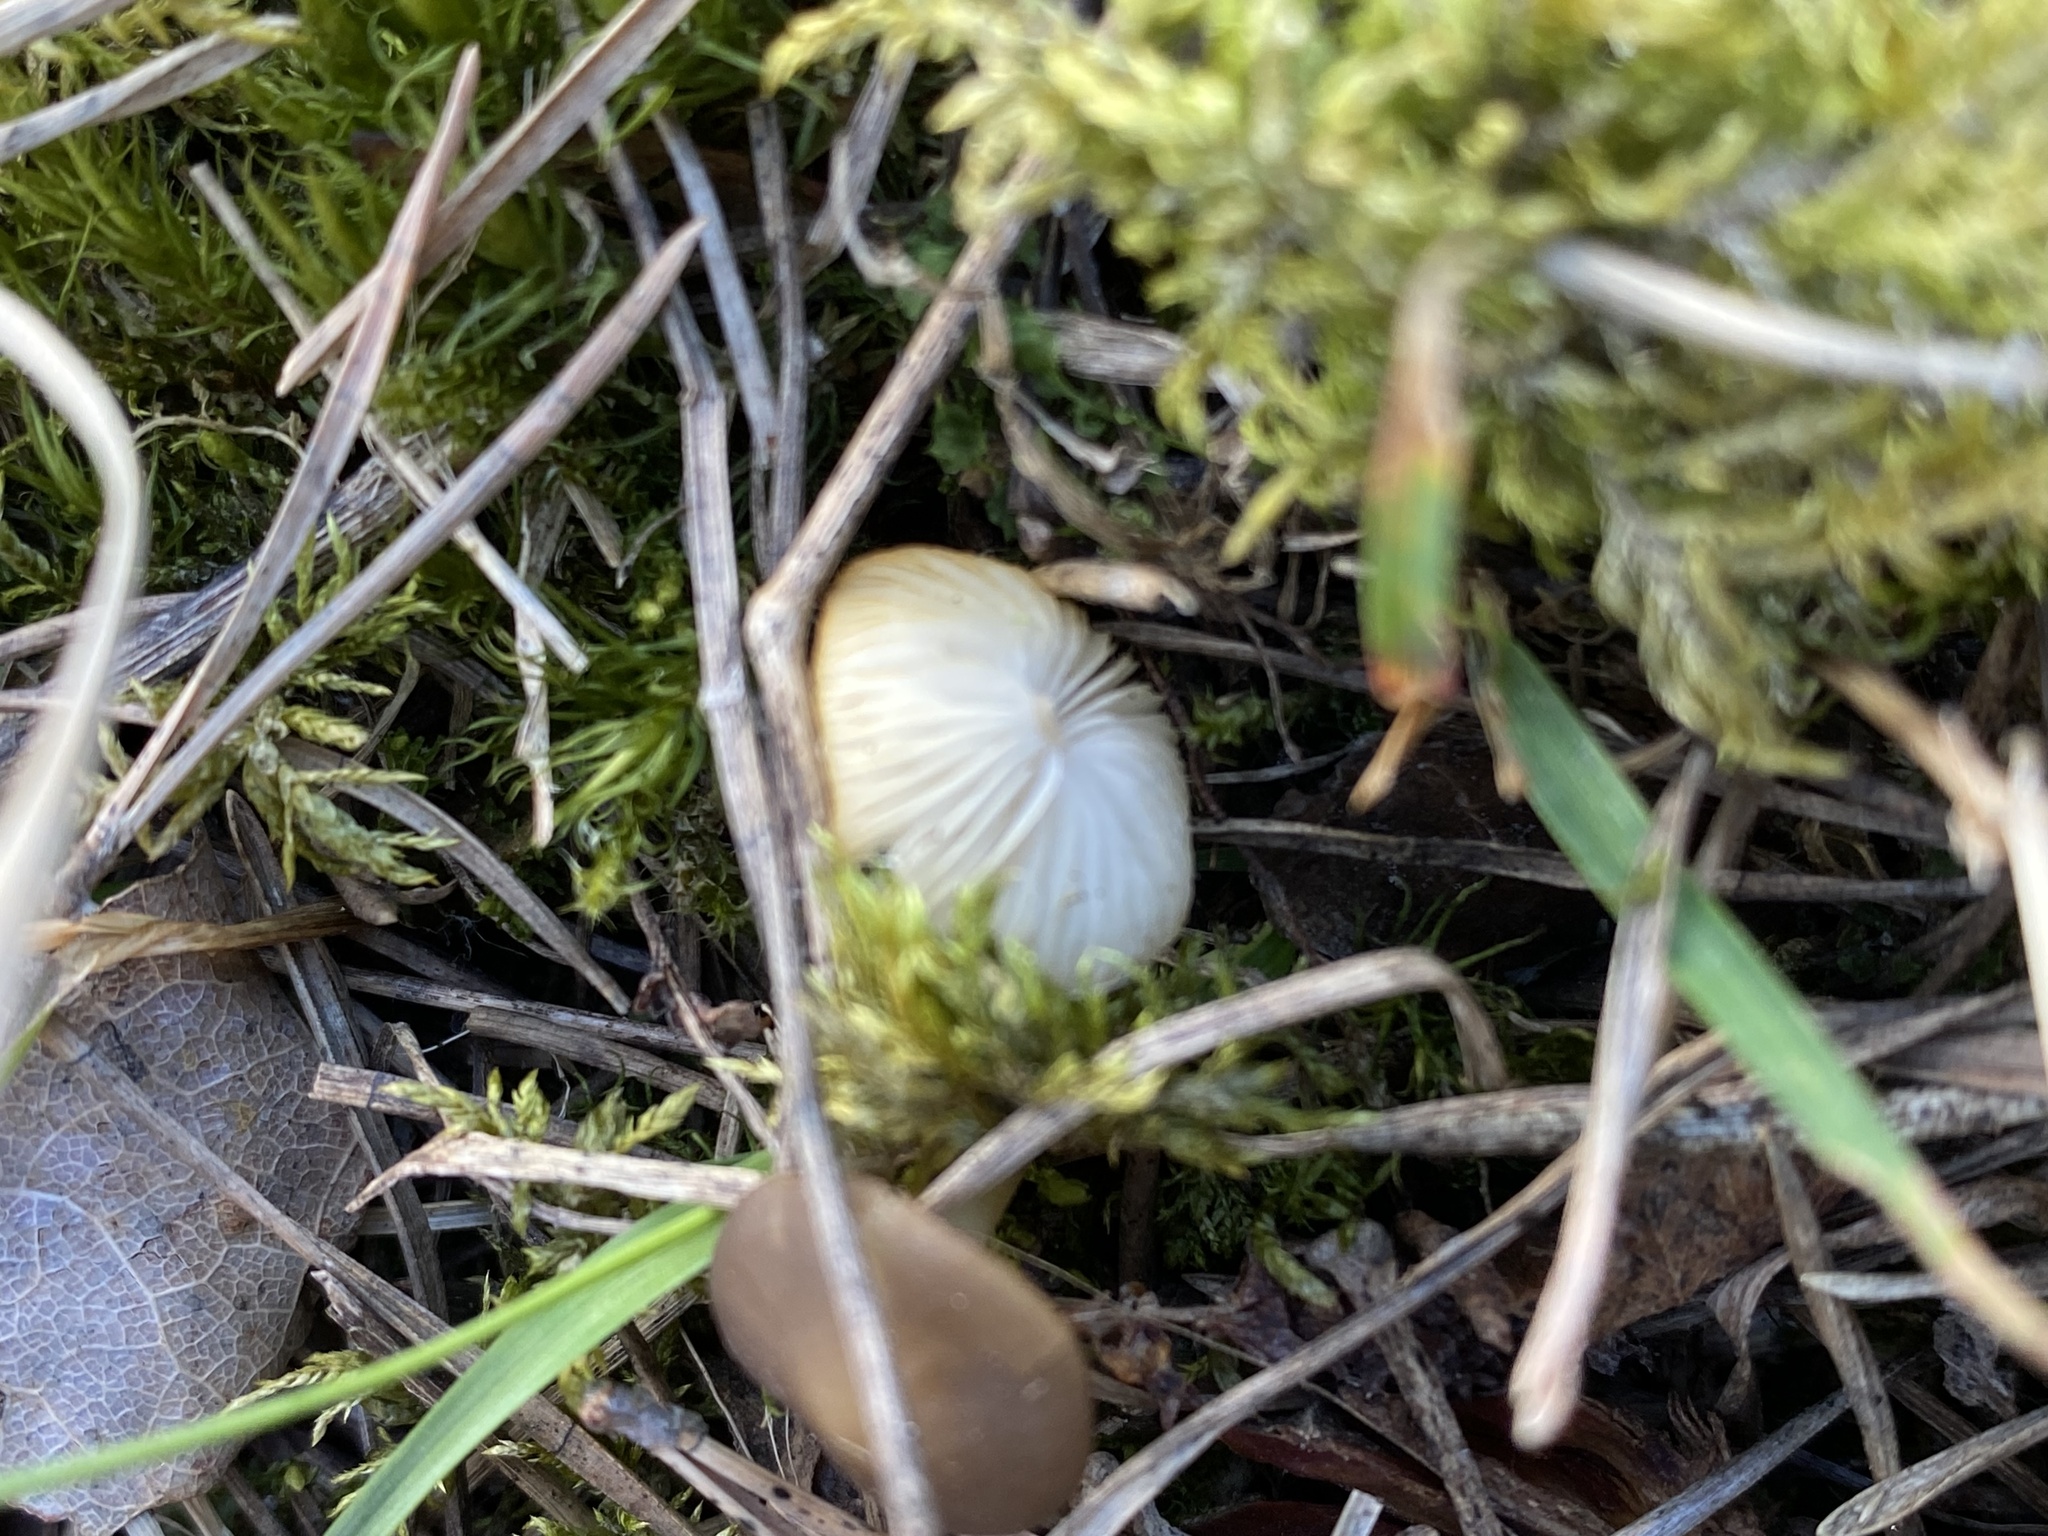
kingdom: Fungi
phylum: Basidiomycota
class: Agaricomycetes
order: Agaricales
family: Physalacriaceae
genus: Strobilurus
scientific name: Strobilurus stephanocystis
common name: Russian conecap
